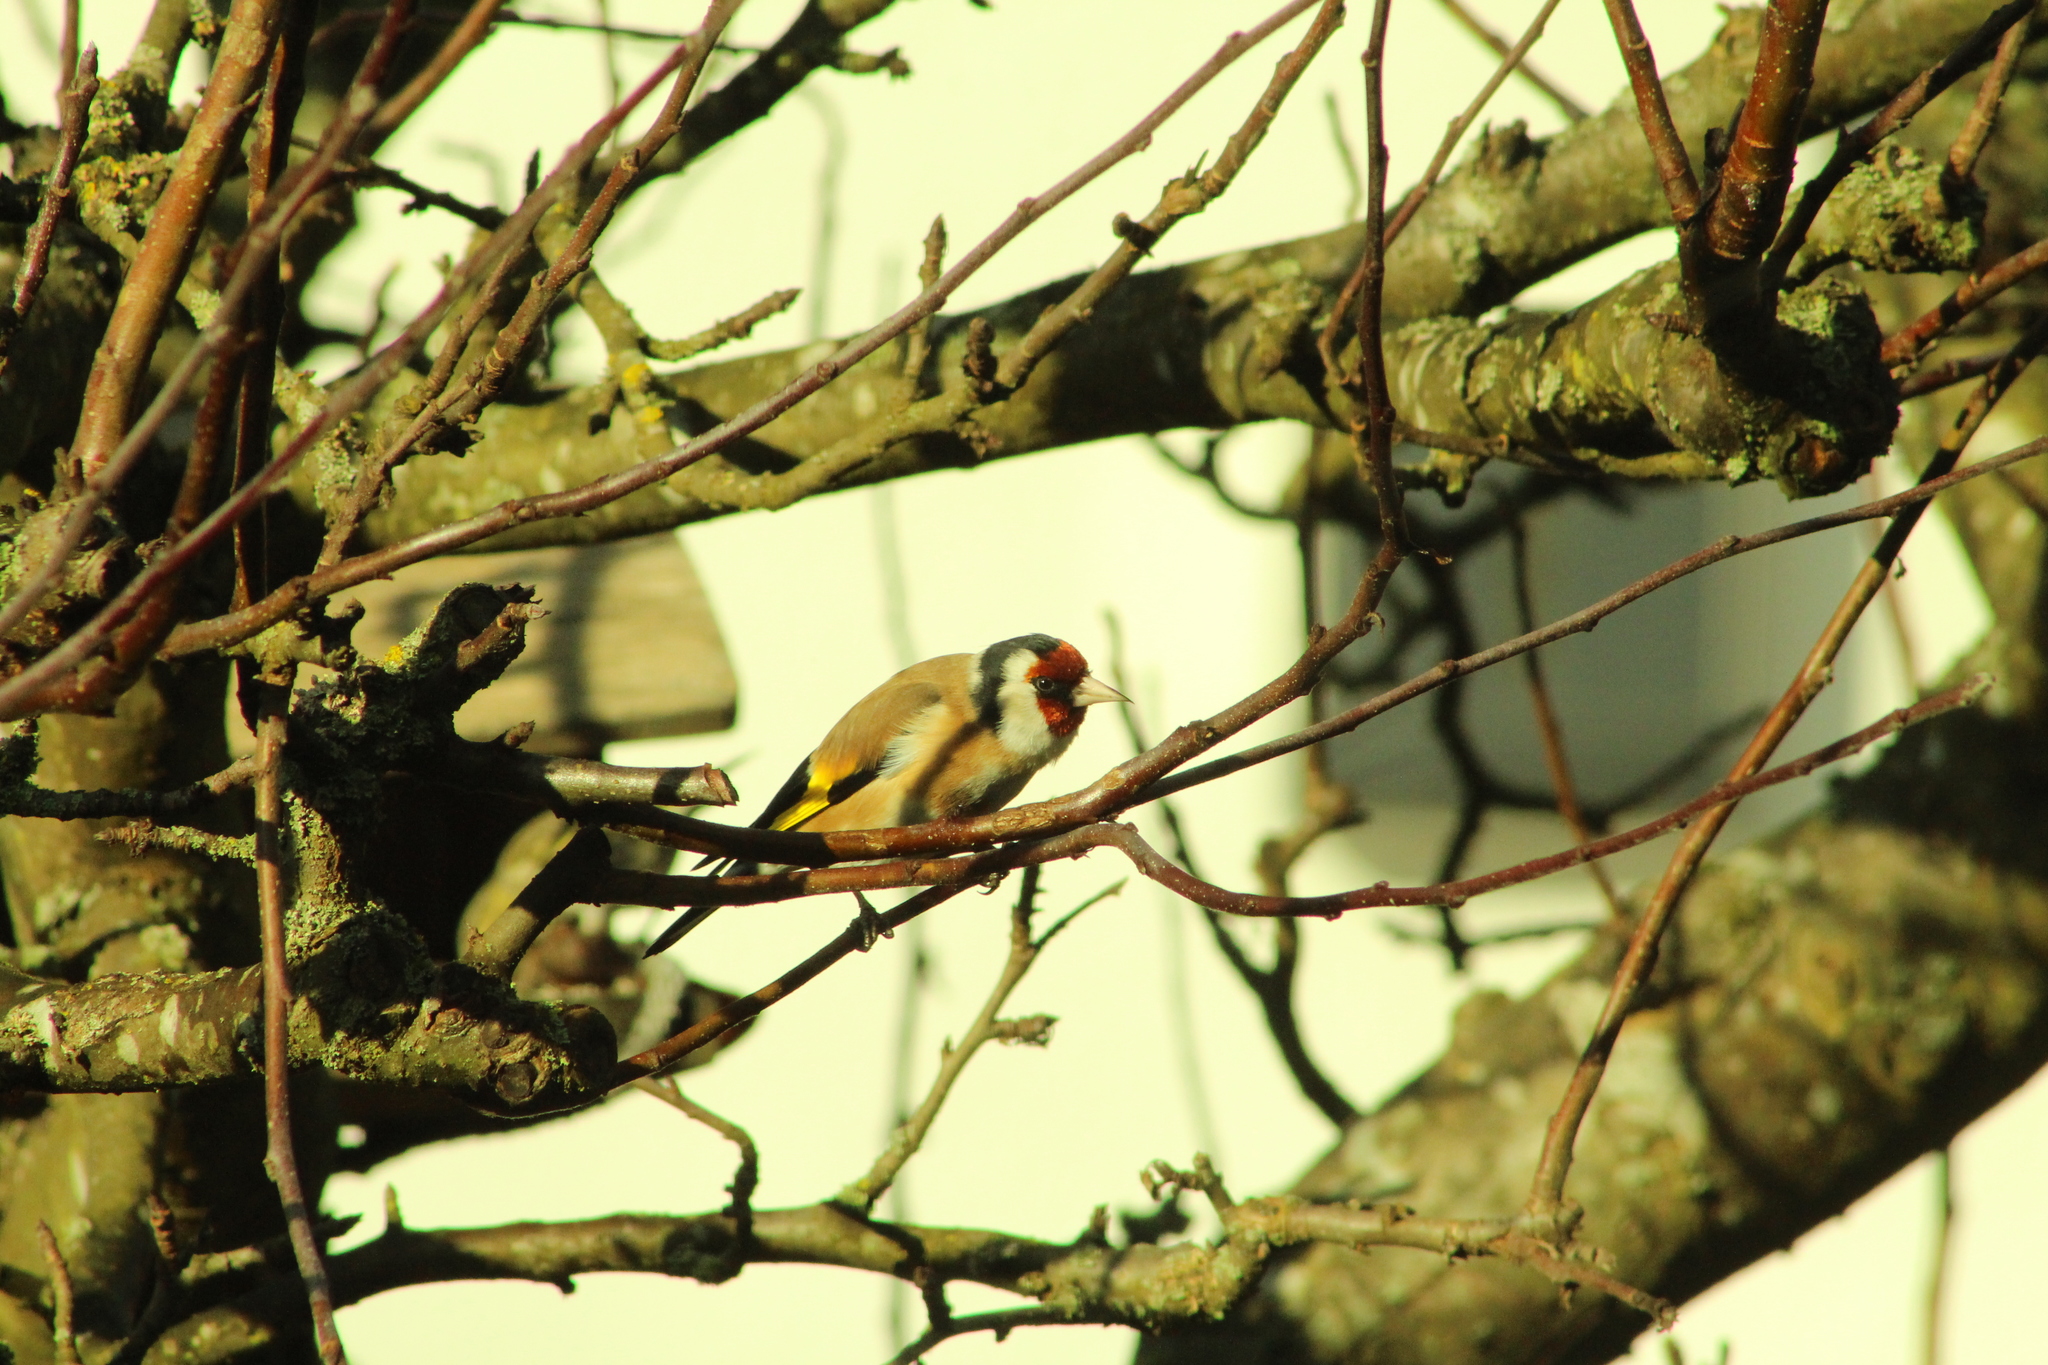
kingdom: Animalia
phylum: Chordata
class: Aves
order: Passeriformes
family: Fringillidae
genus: Carduelis
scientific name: Carduelis carduelis
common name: European goldfinch
